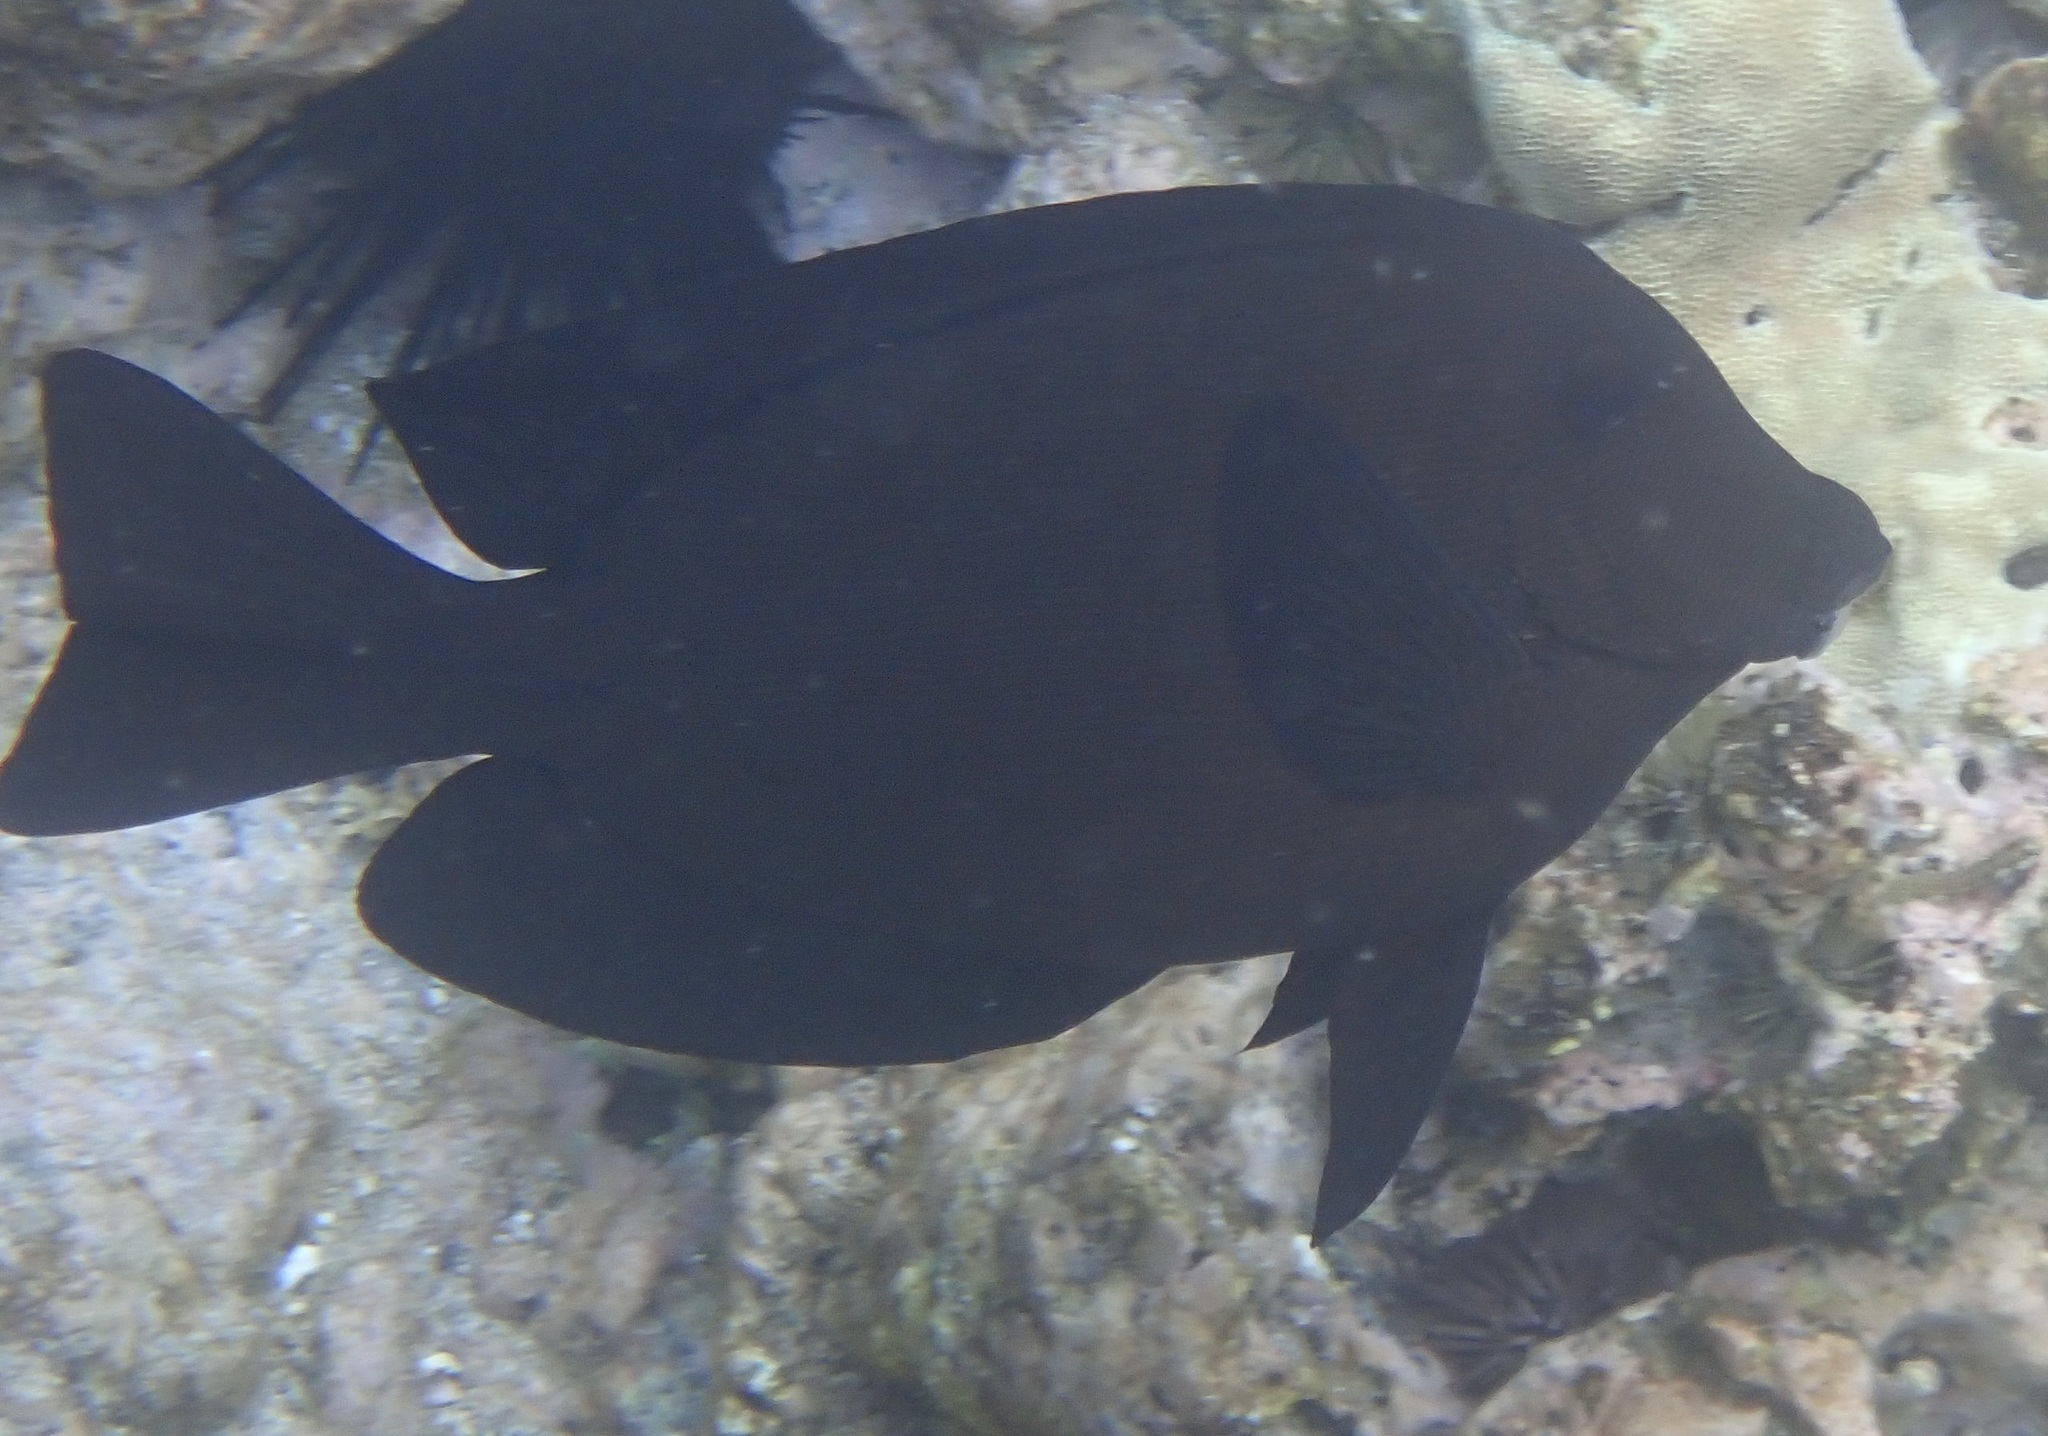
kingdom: Animalia
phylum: Chordata
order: Perciformes
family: Acanthuridae
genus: Ctenochaetus
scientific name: Ctenochaetus hawaiiensis
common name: Hawaiian surgeonfish
